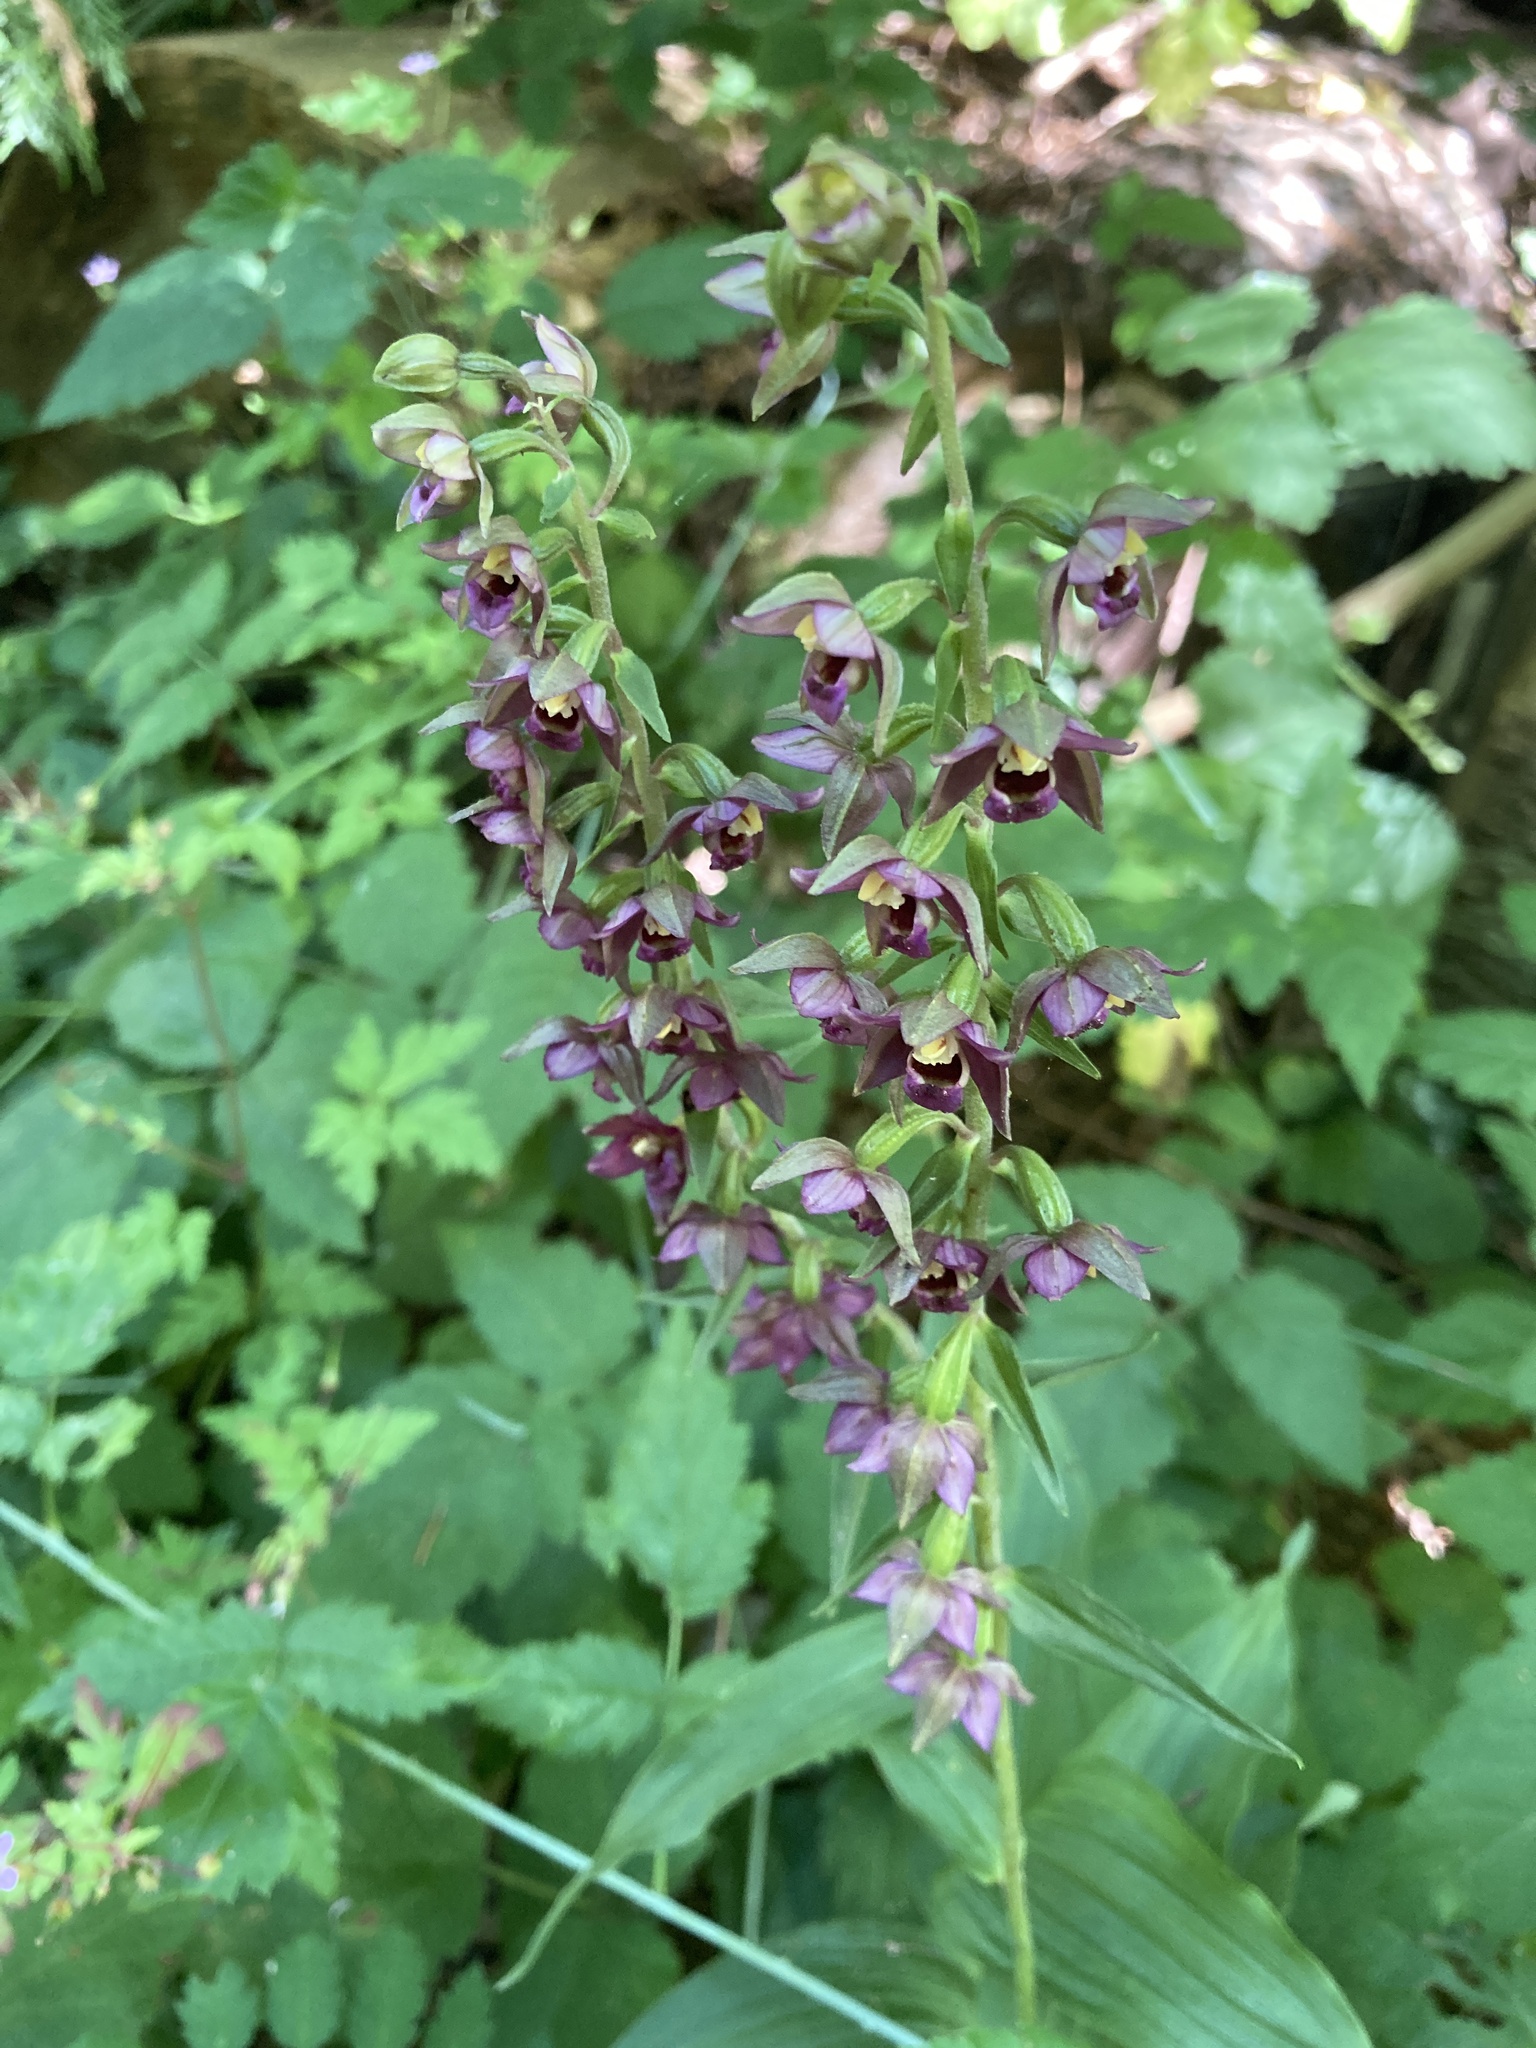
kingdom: Plantae
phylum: Tracheophyta
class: Liliopsida
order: Asparagales
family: Orchidaceae
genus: Epipactis
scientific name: Epipactis helleborine
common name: Broad-leaved helleborine
